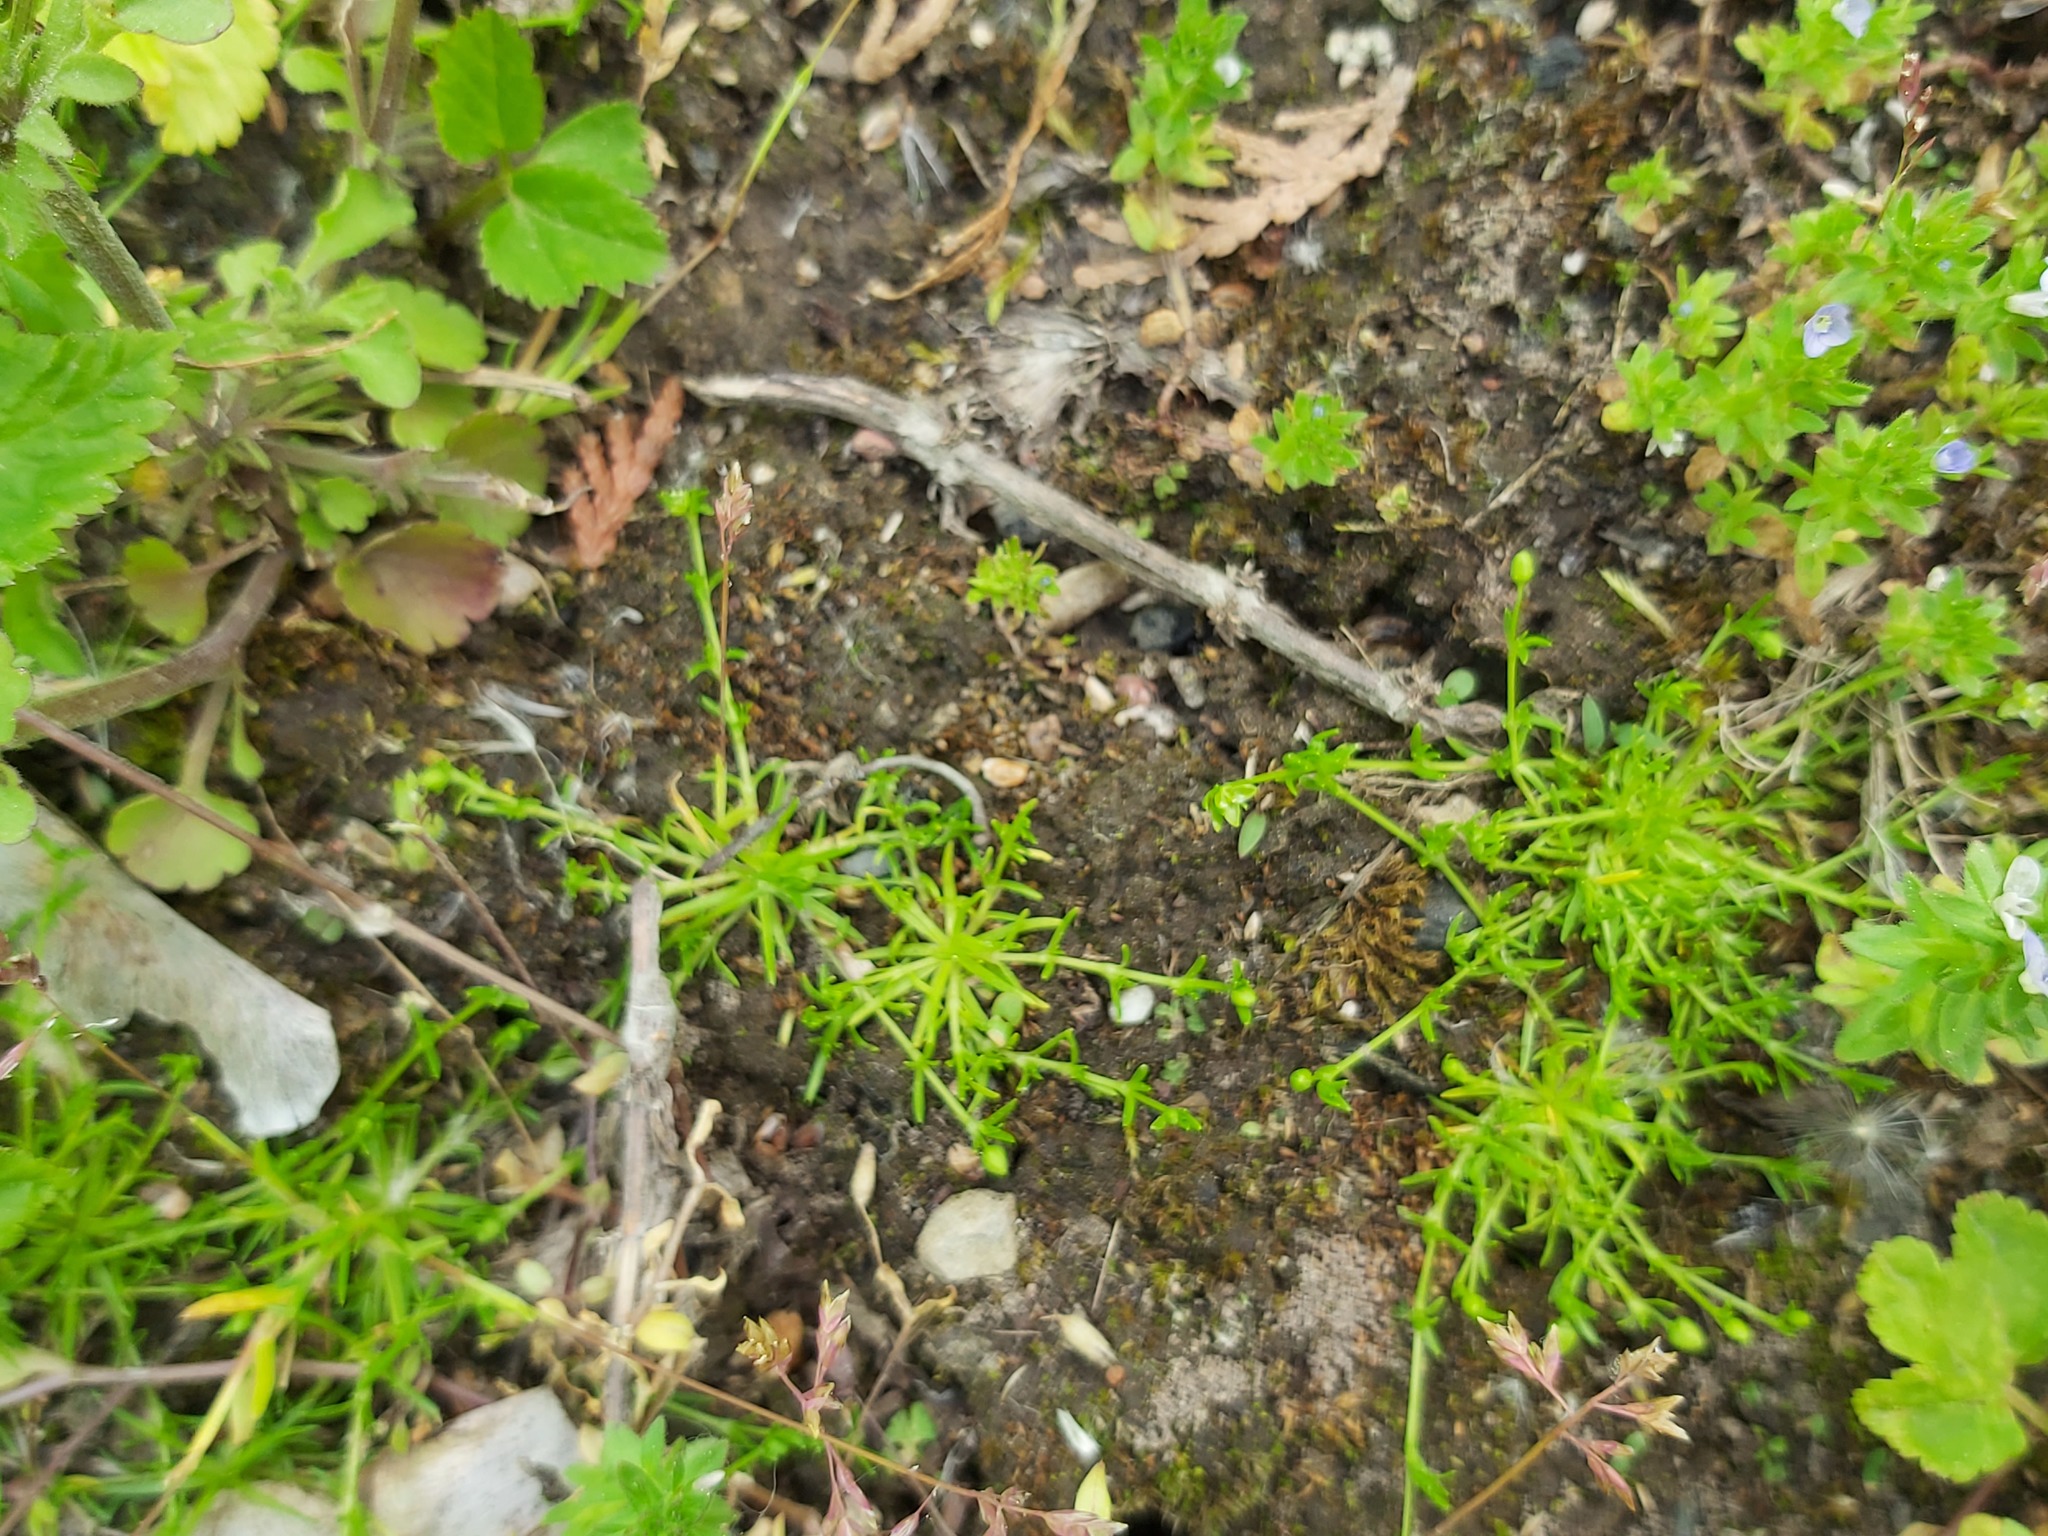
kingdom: Plantae
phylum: Tracheophyta
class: Magnoliopsida
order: Caryophyllales
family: Caryophyllaceae
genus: Sagina
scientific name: Sagina procumbens
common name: Procumbent pearlwort
